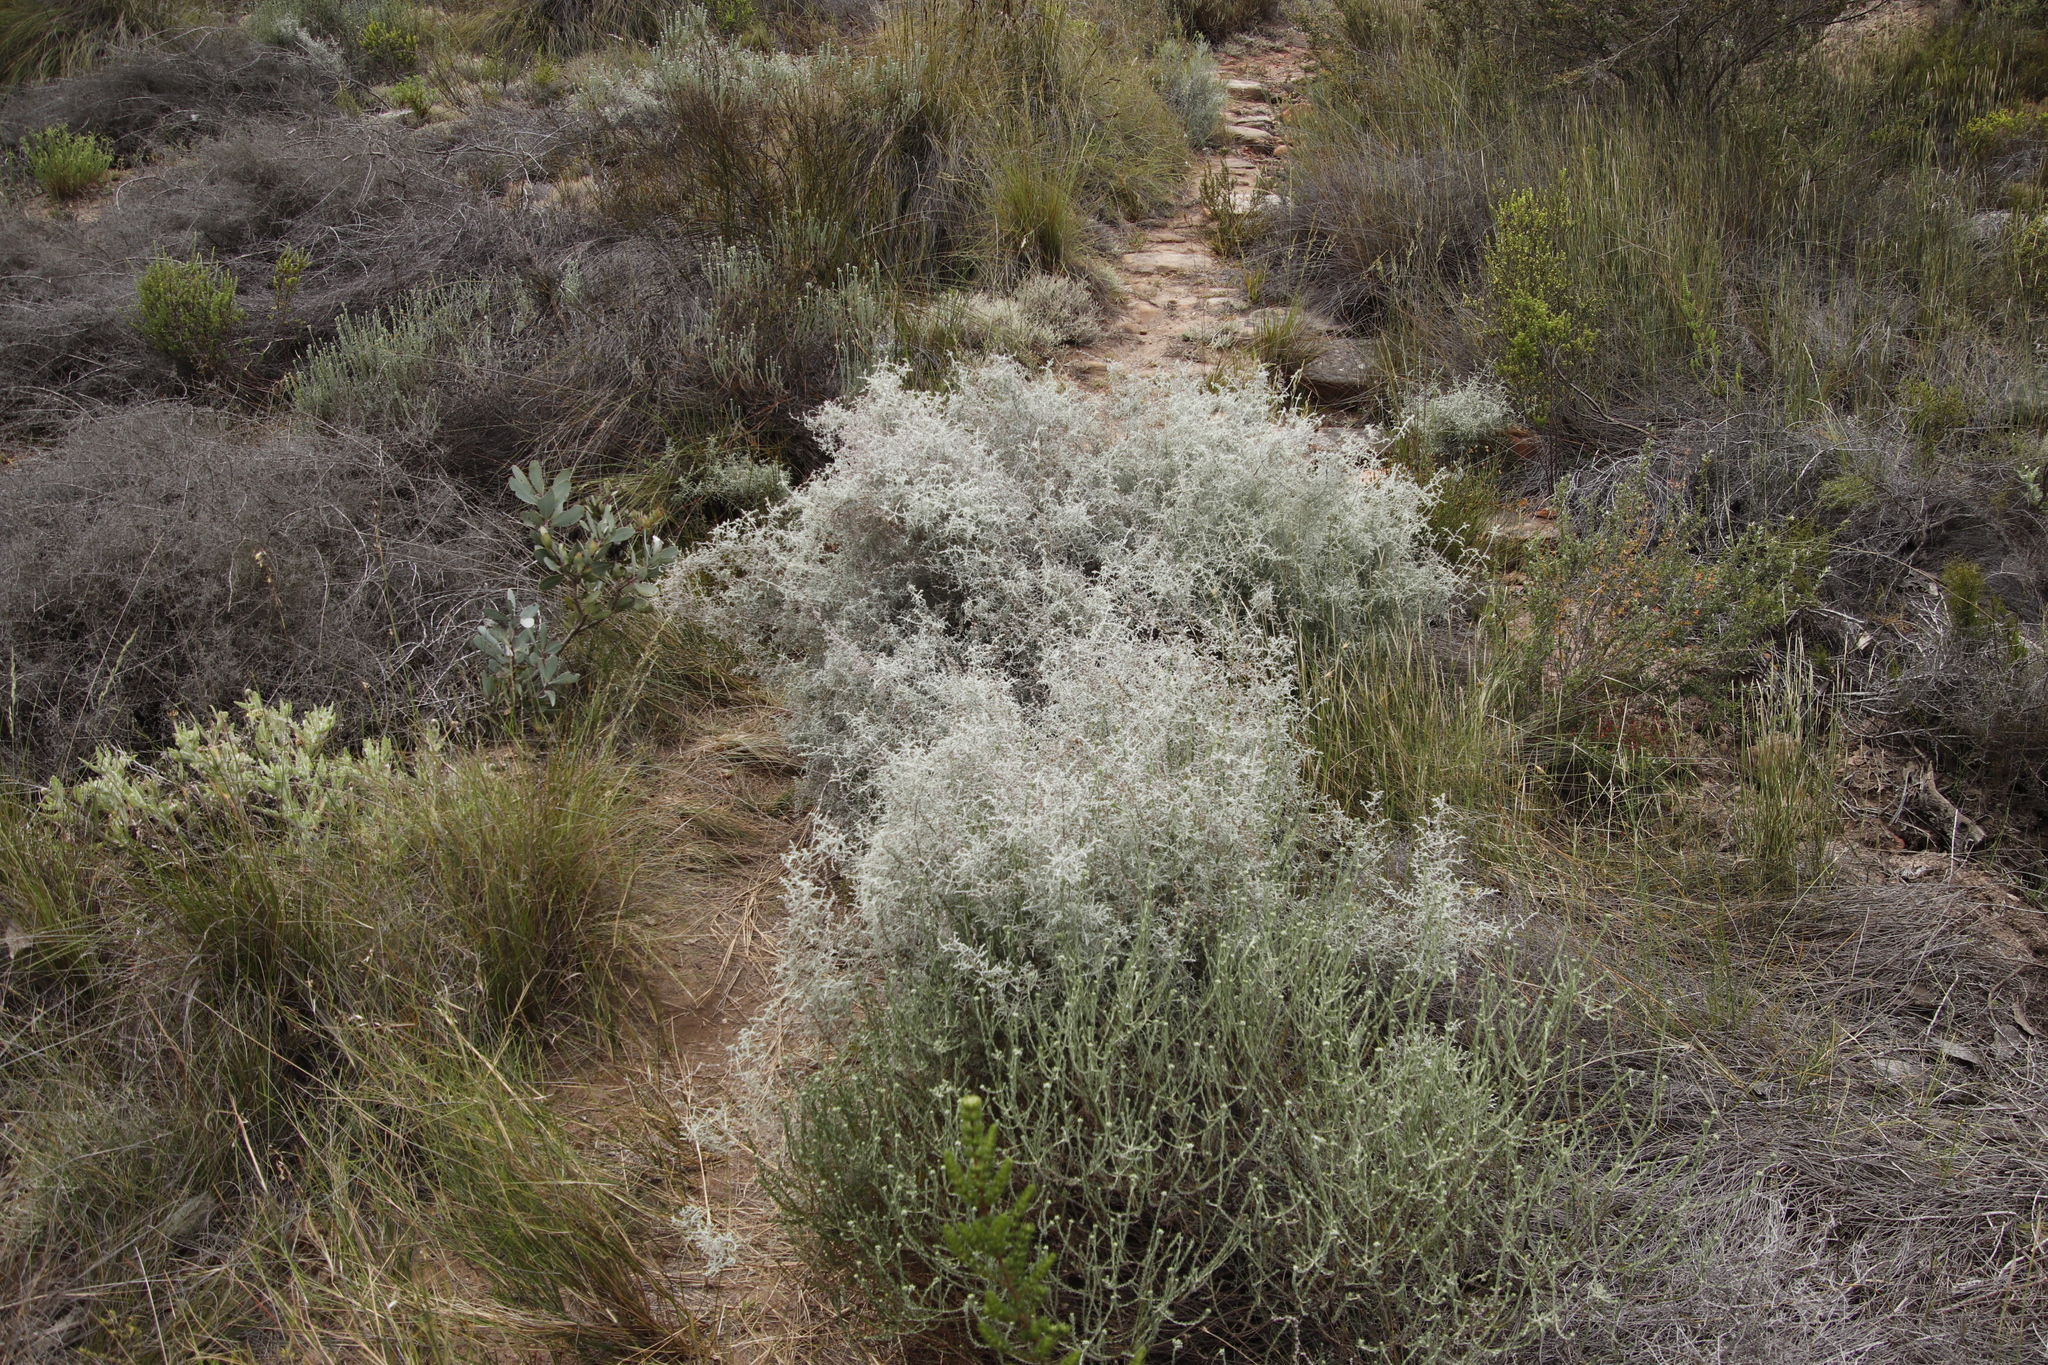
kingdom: Plantae
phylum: Tracheophyta
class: Magnoliopsida
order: Asterales
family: Asteraceae
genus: Seriphium
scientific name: Seriphium plumosum
